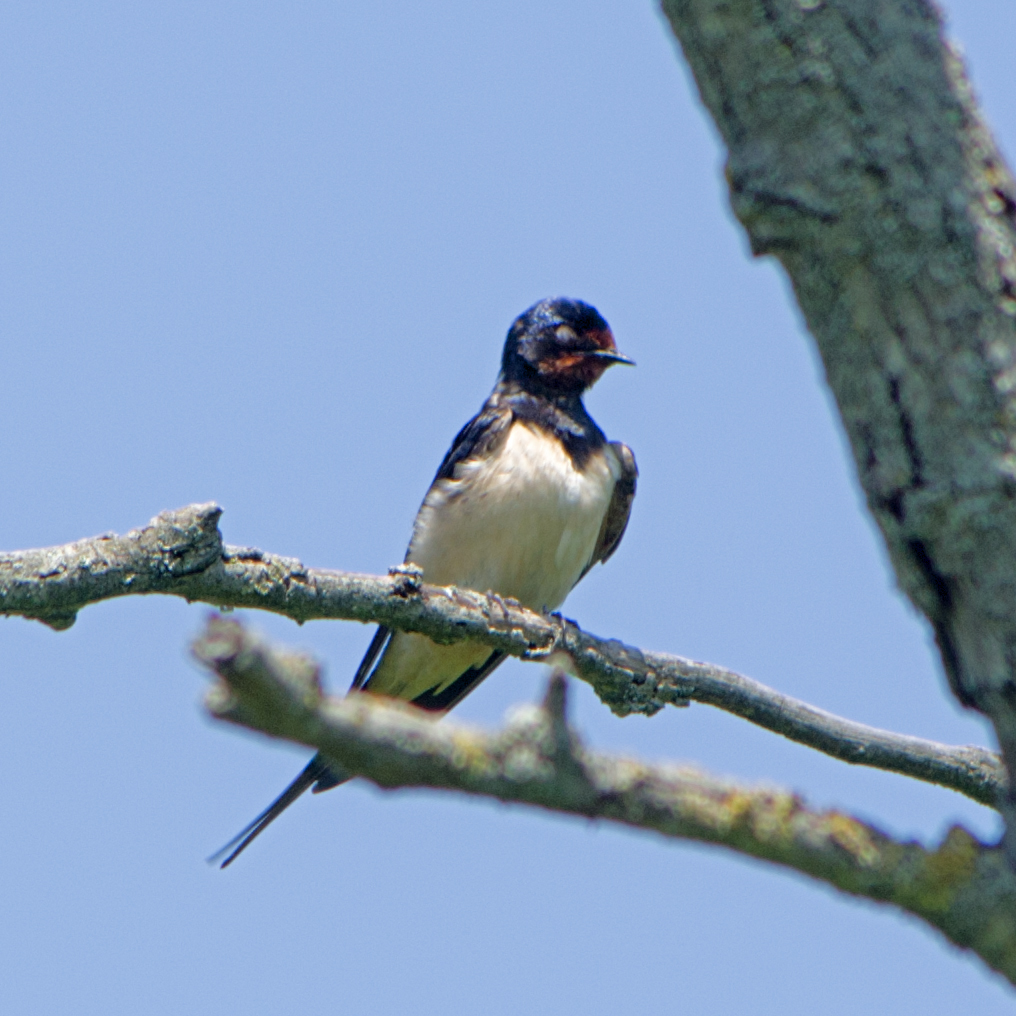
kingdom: Animalia
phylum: Chordata
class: Aves
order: Passeriformes
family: Hirundinidae
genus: Hirundo
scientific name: Hirundo rustica
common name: Barn swallow
